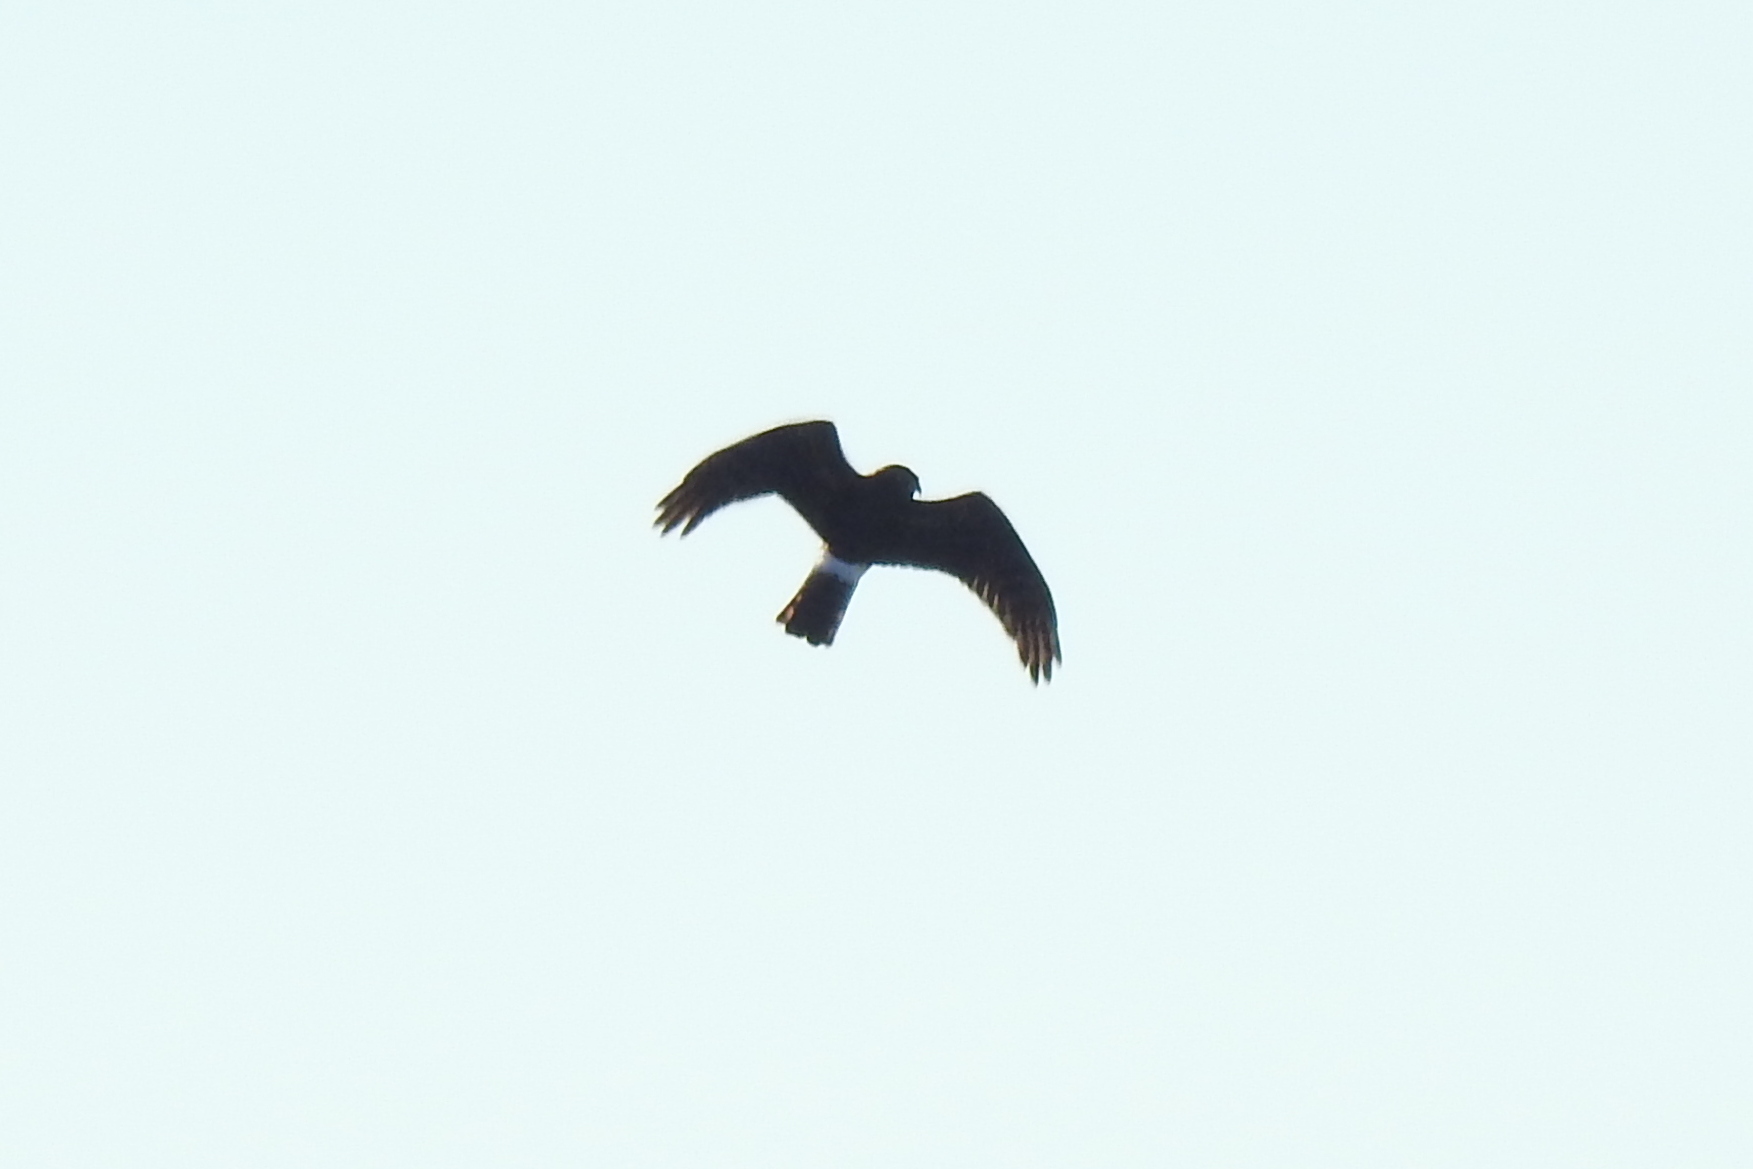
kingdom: Animalia
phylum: Chordata
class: Aves
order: Accipitriformes
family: Accipitridae
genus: Circus
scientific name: Circus cyaneus
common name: Hen harrier
